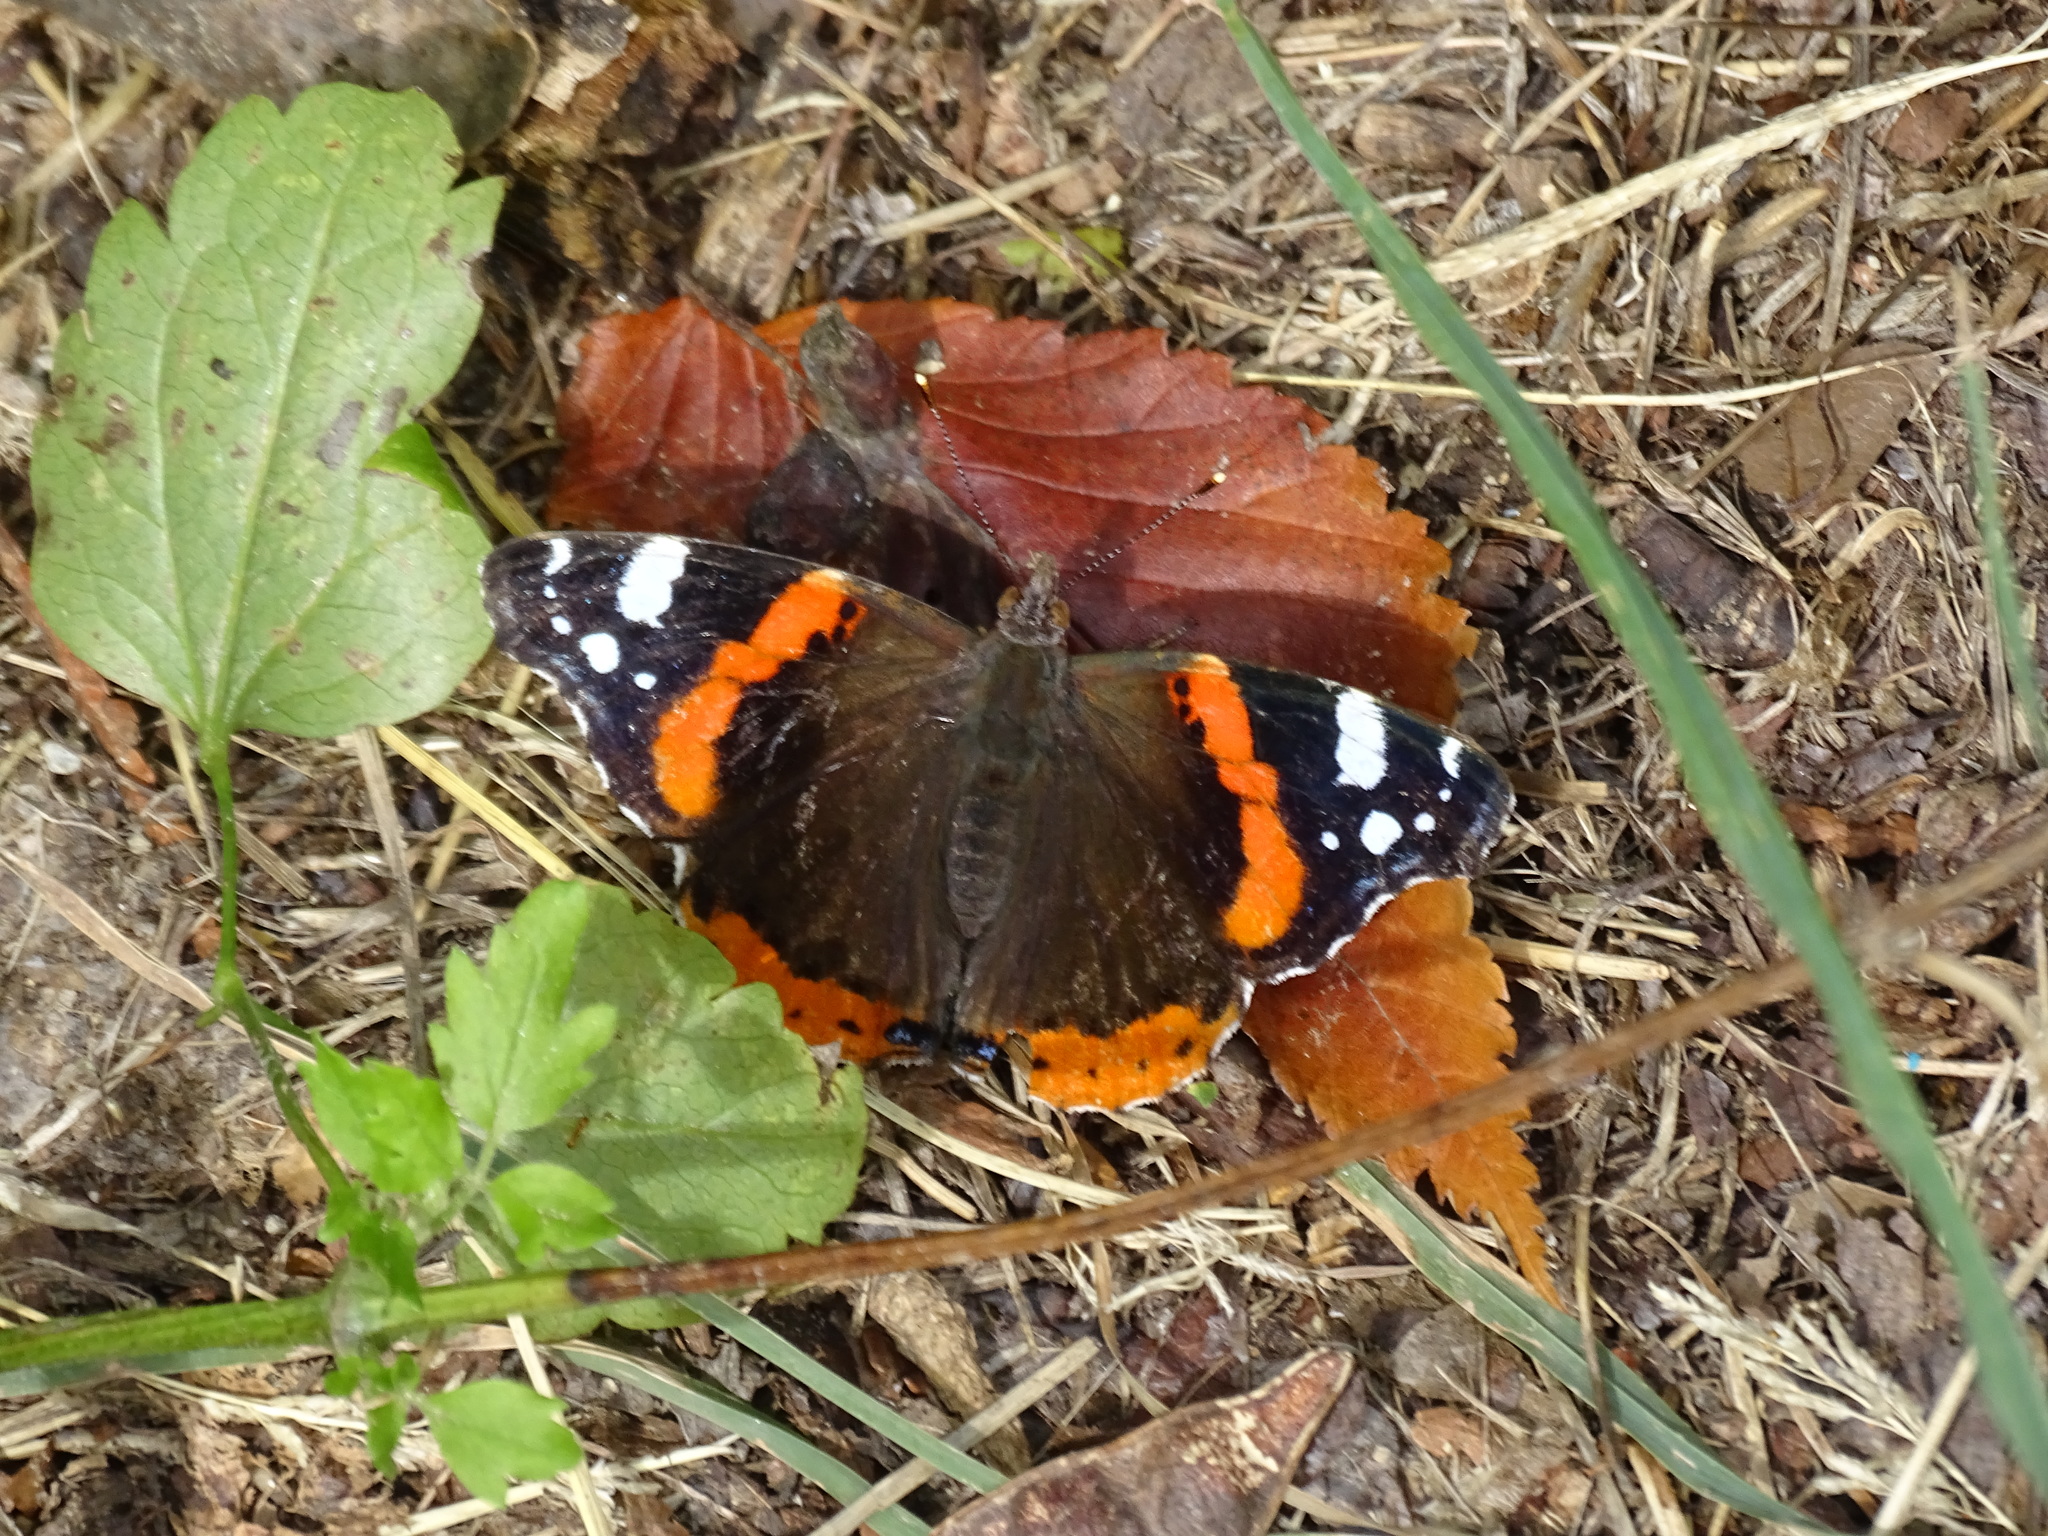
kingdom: Animalia
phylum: Arthropoda
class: Insecta
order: Lepidoptera
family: Nymphalidae
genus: Vanessa
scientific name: Vanessa atalanta
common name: Red admiral
